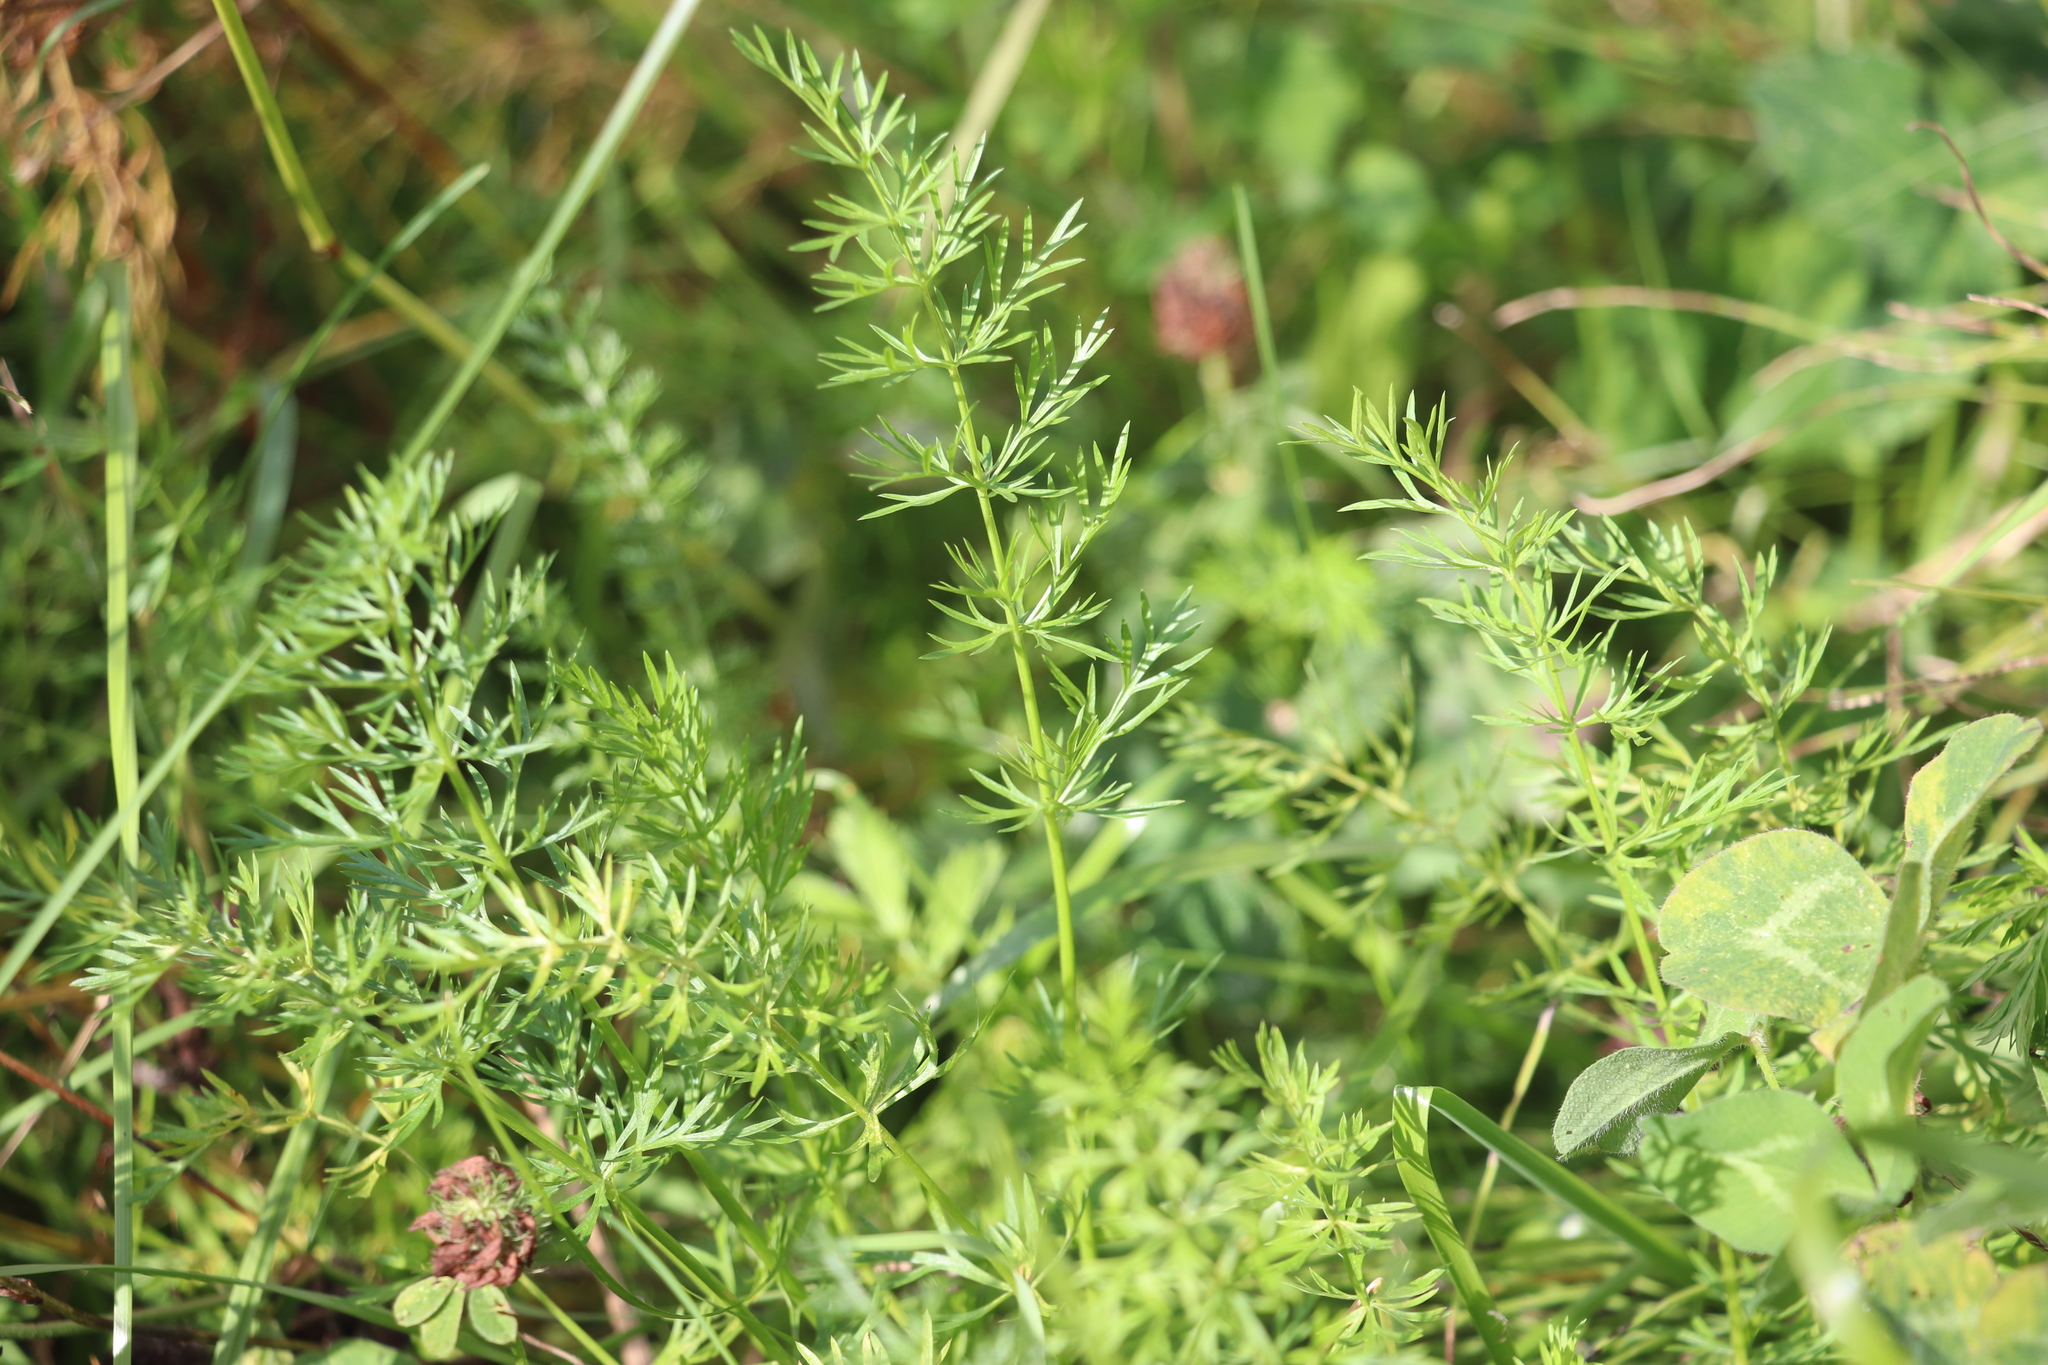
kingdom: Plantae
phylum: Tracheophyta
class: Magnoliopsida
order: Apiales
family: Apiaceae
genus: Carum
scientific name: Carum carvi
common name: Caraway
